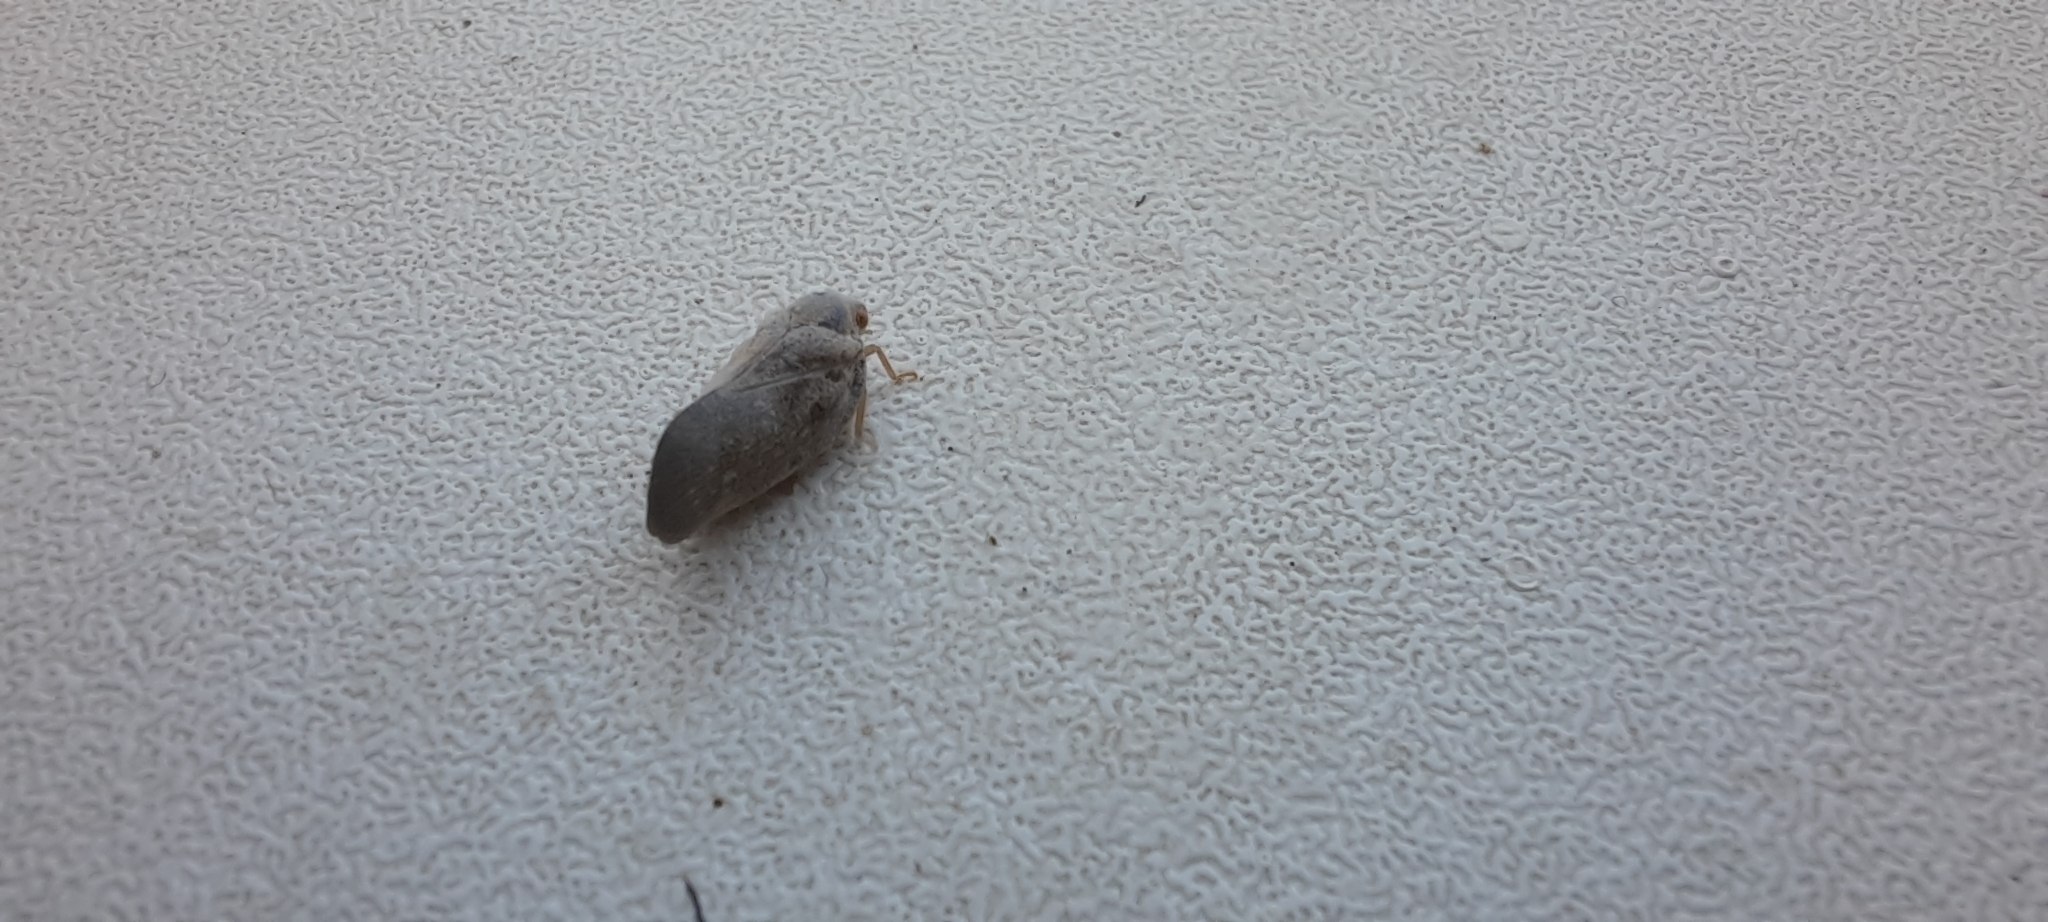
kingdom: Animalia
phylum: Arthropoda
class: Insecta
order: Hemiptera
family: Flatidae
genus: Metcalfa
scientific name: Metcalfa pruinosa
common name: Citrus flatid planthopper
